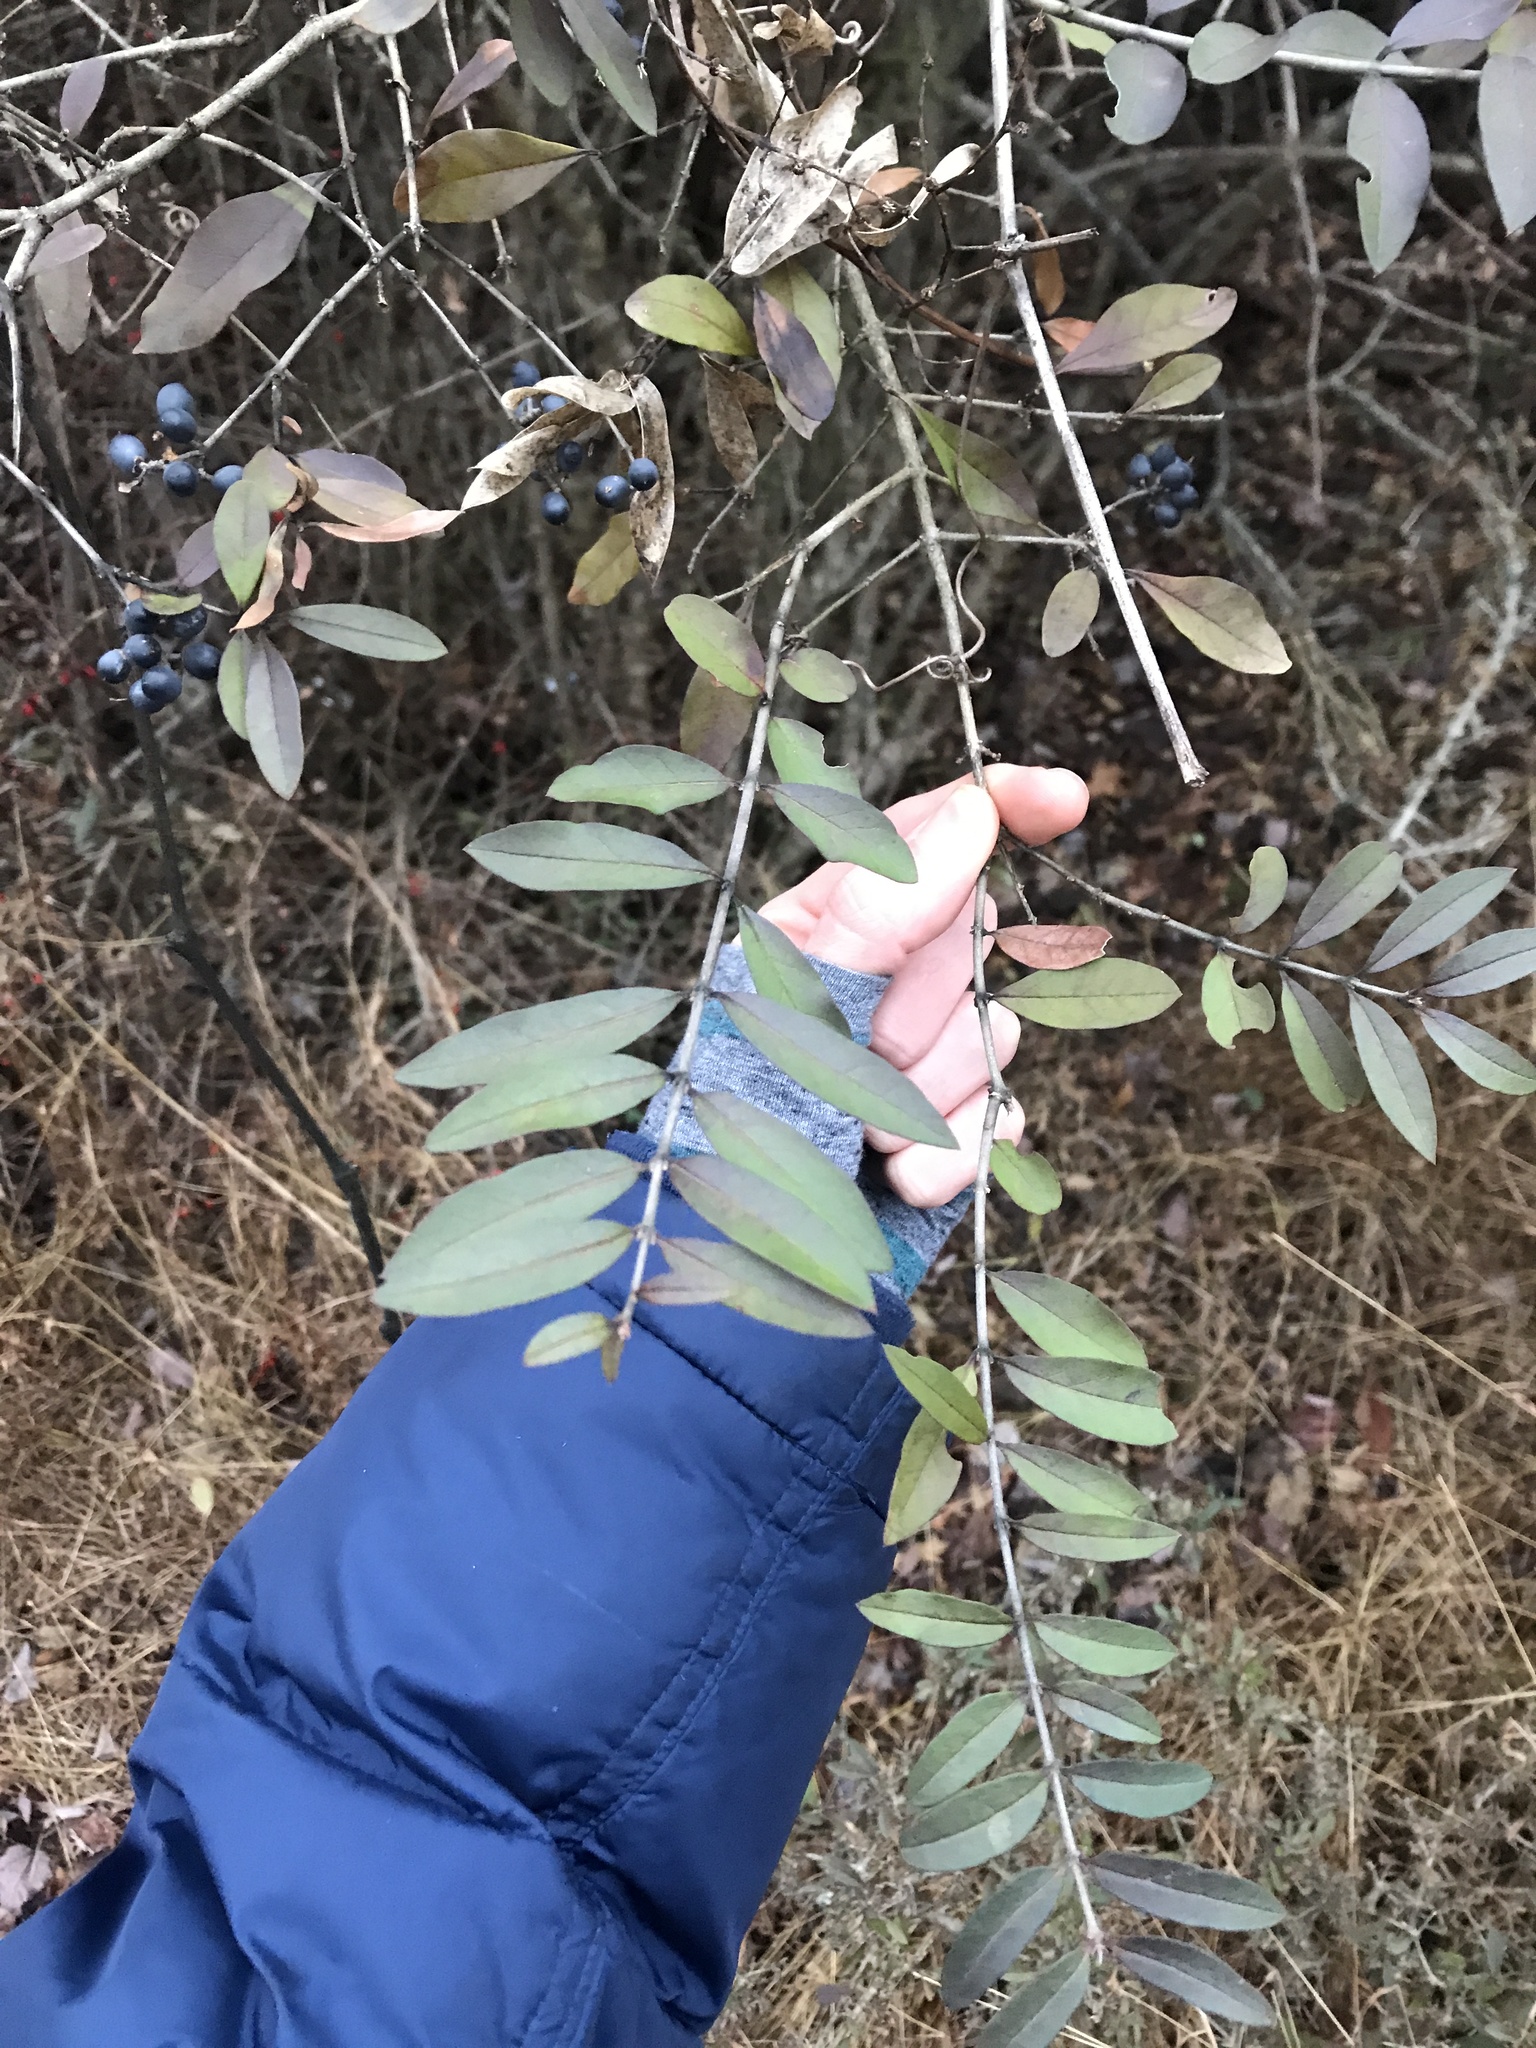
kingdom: Plantae
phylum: Tracheophyta
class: Magnoliopsida
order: Lamiales
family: Oleaceae
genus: Ligustrum
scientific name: Ligustrum obtusifolium
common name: Border privet
